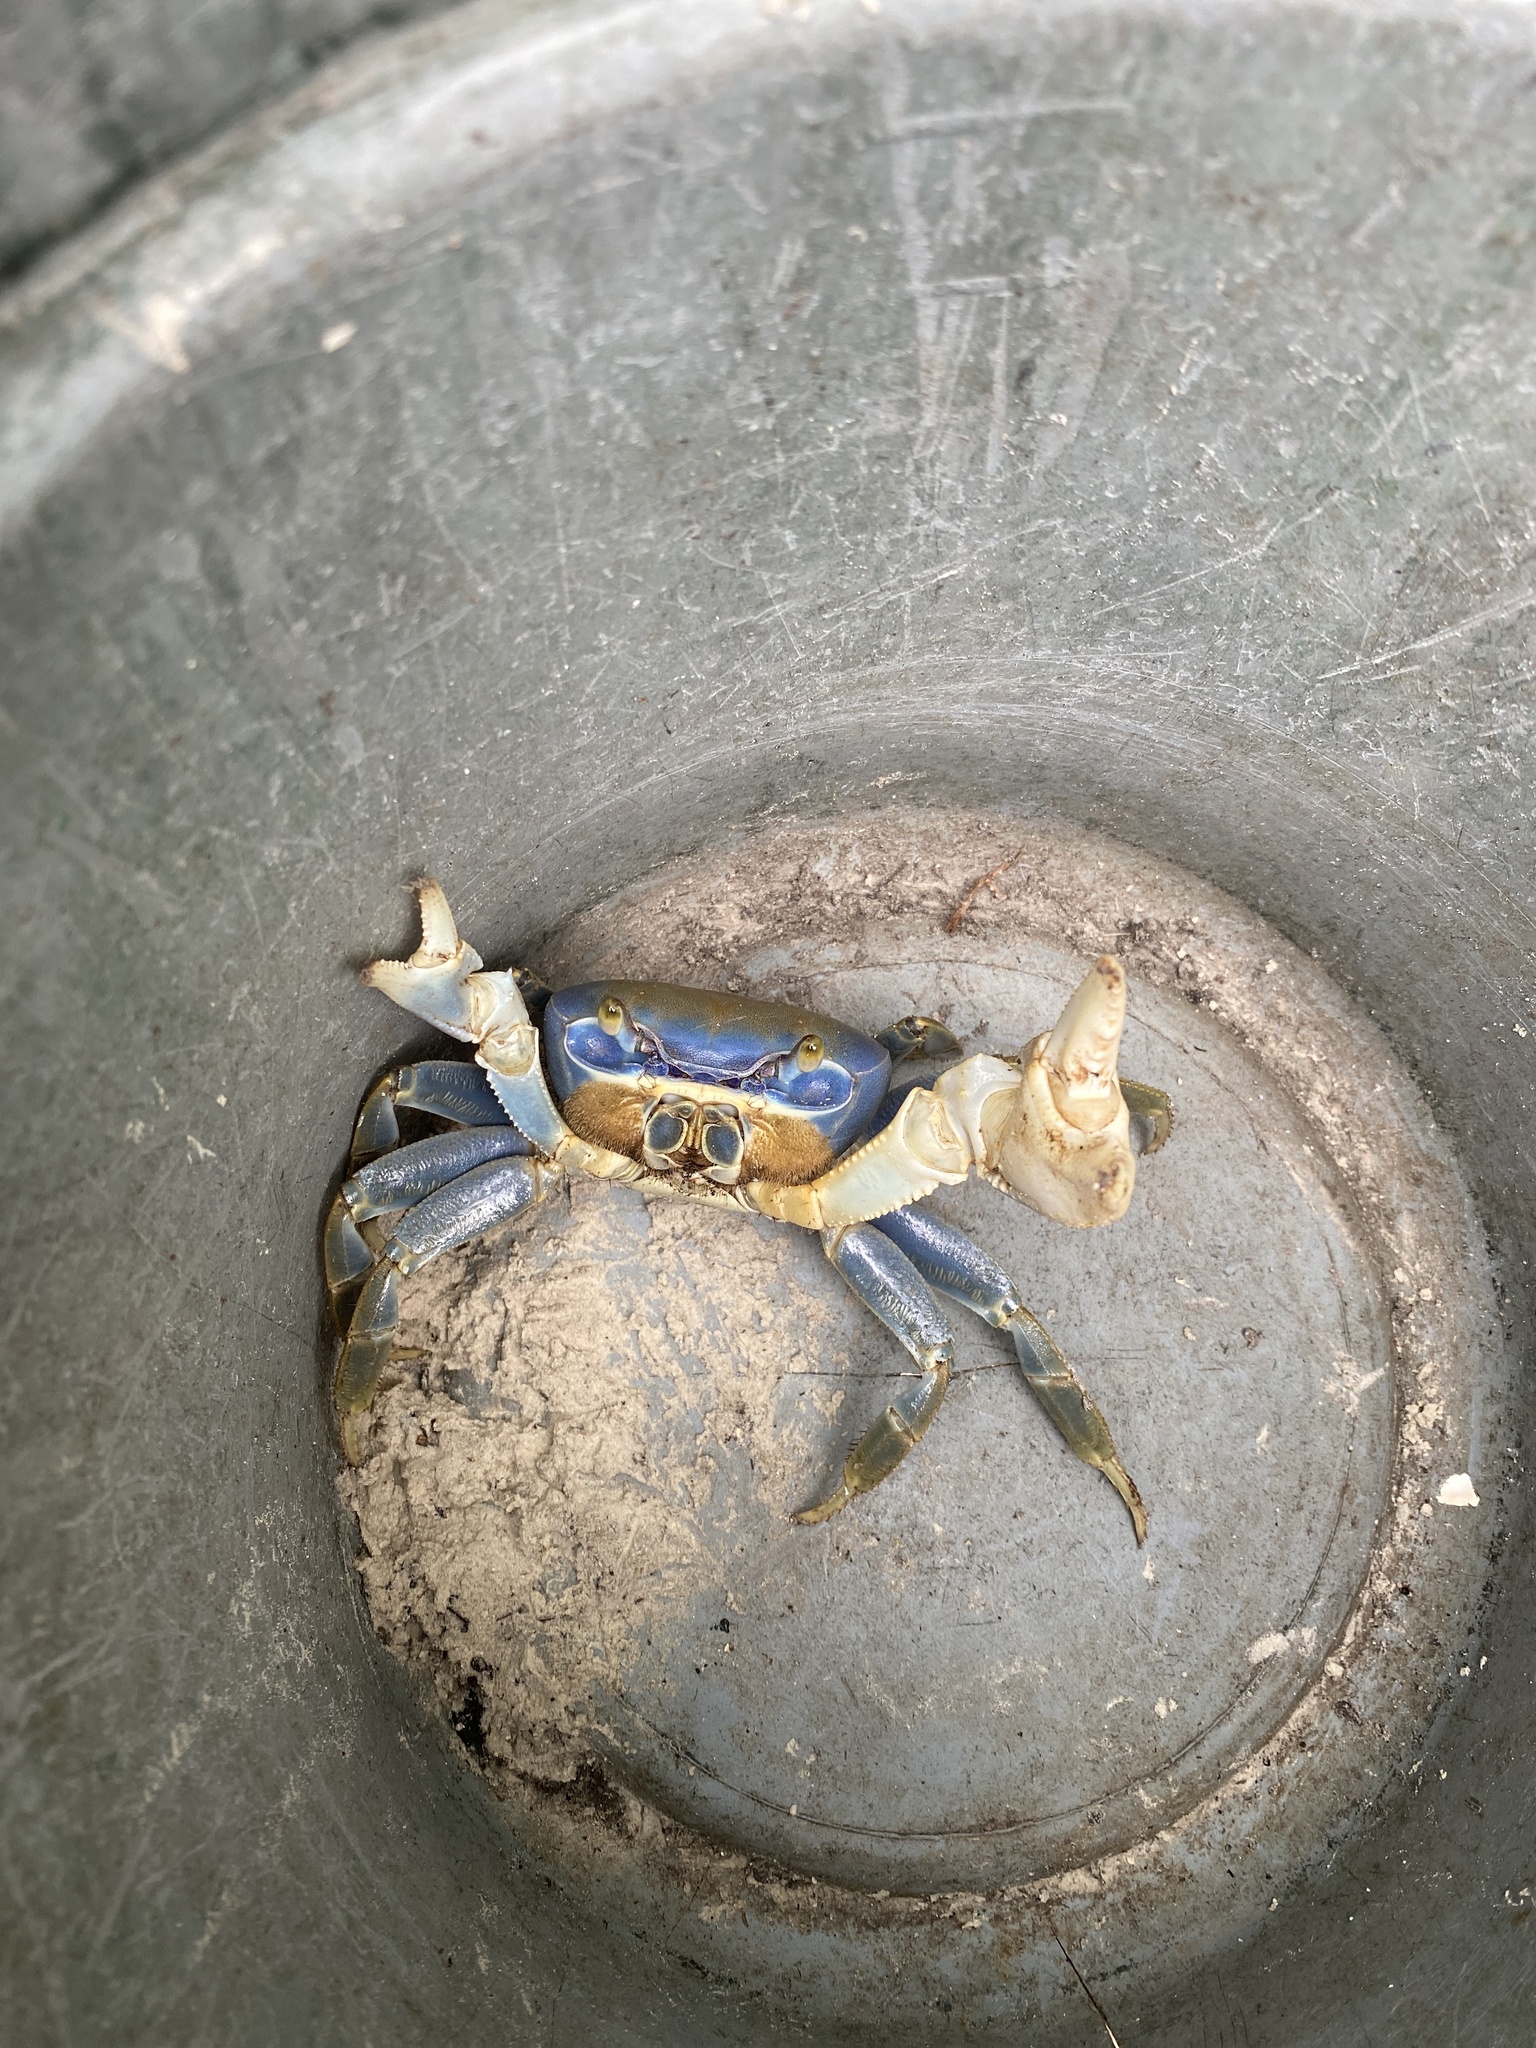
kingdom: Animalia
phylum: Arthropoda
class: Malacostraca
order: Decapoda
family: Gecarcinidae
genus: Cardisoma
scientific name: Cardisoma guanhumi
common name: Great land crab
